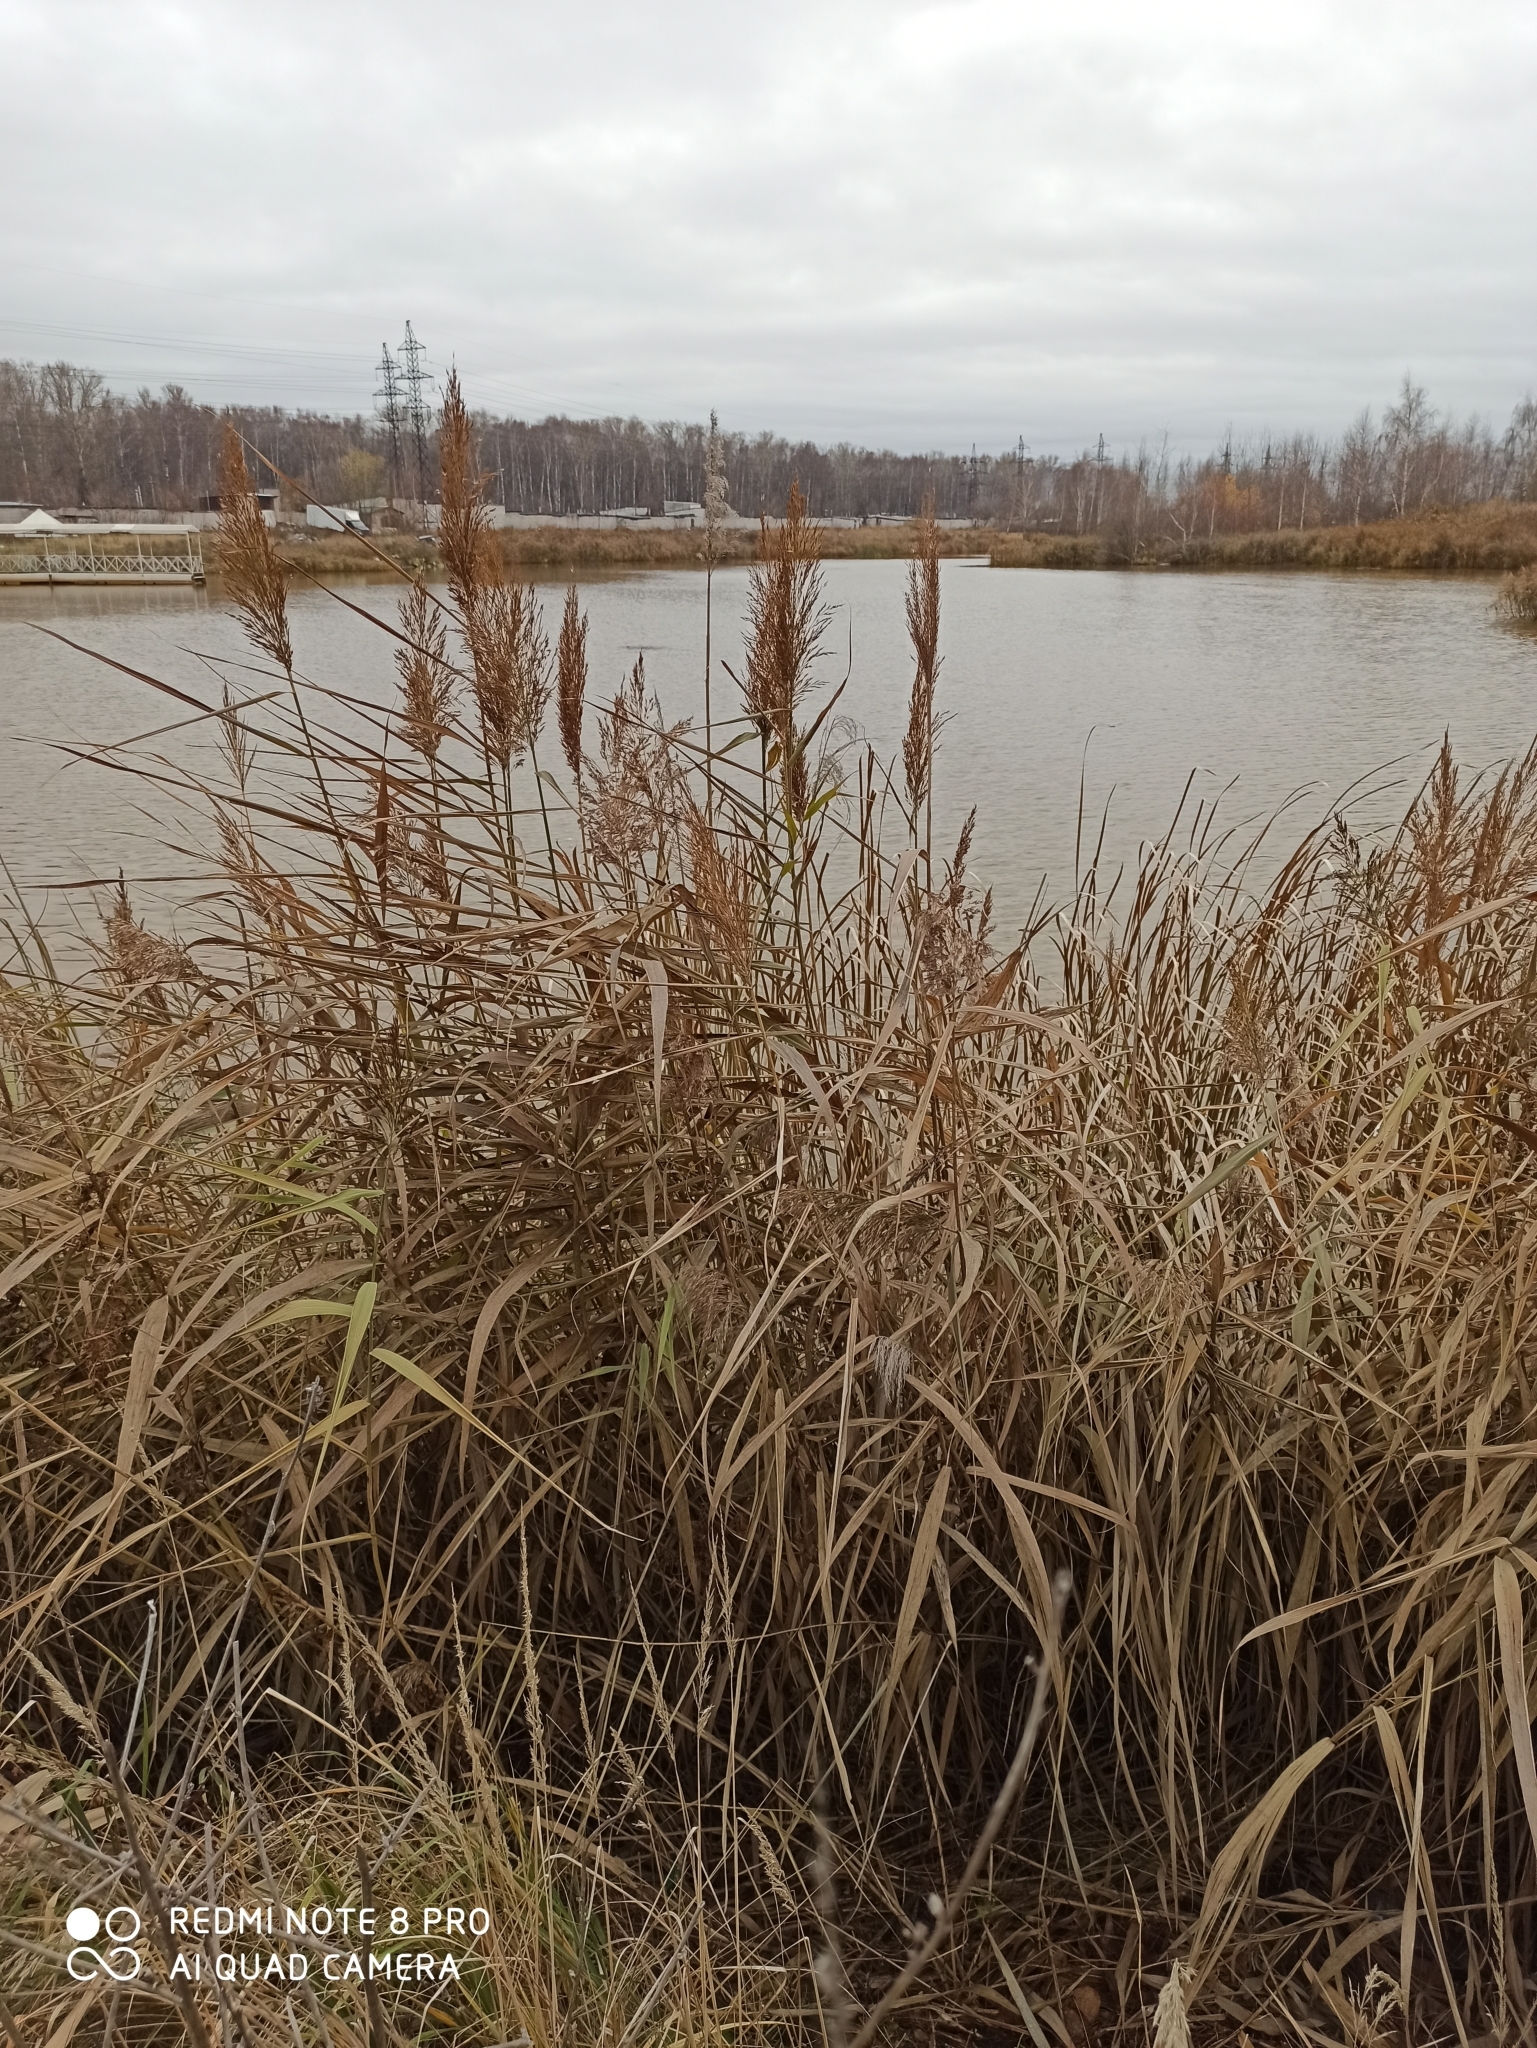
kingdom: Plantae
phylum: Tracheophyta
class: Liliopsida
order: Poales
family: Poaceae
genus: Phragmites
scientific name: Phragmites australis
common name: Common reed
